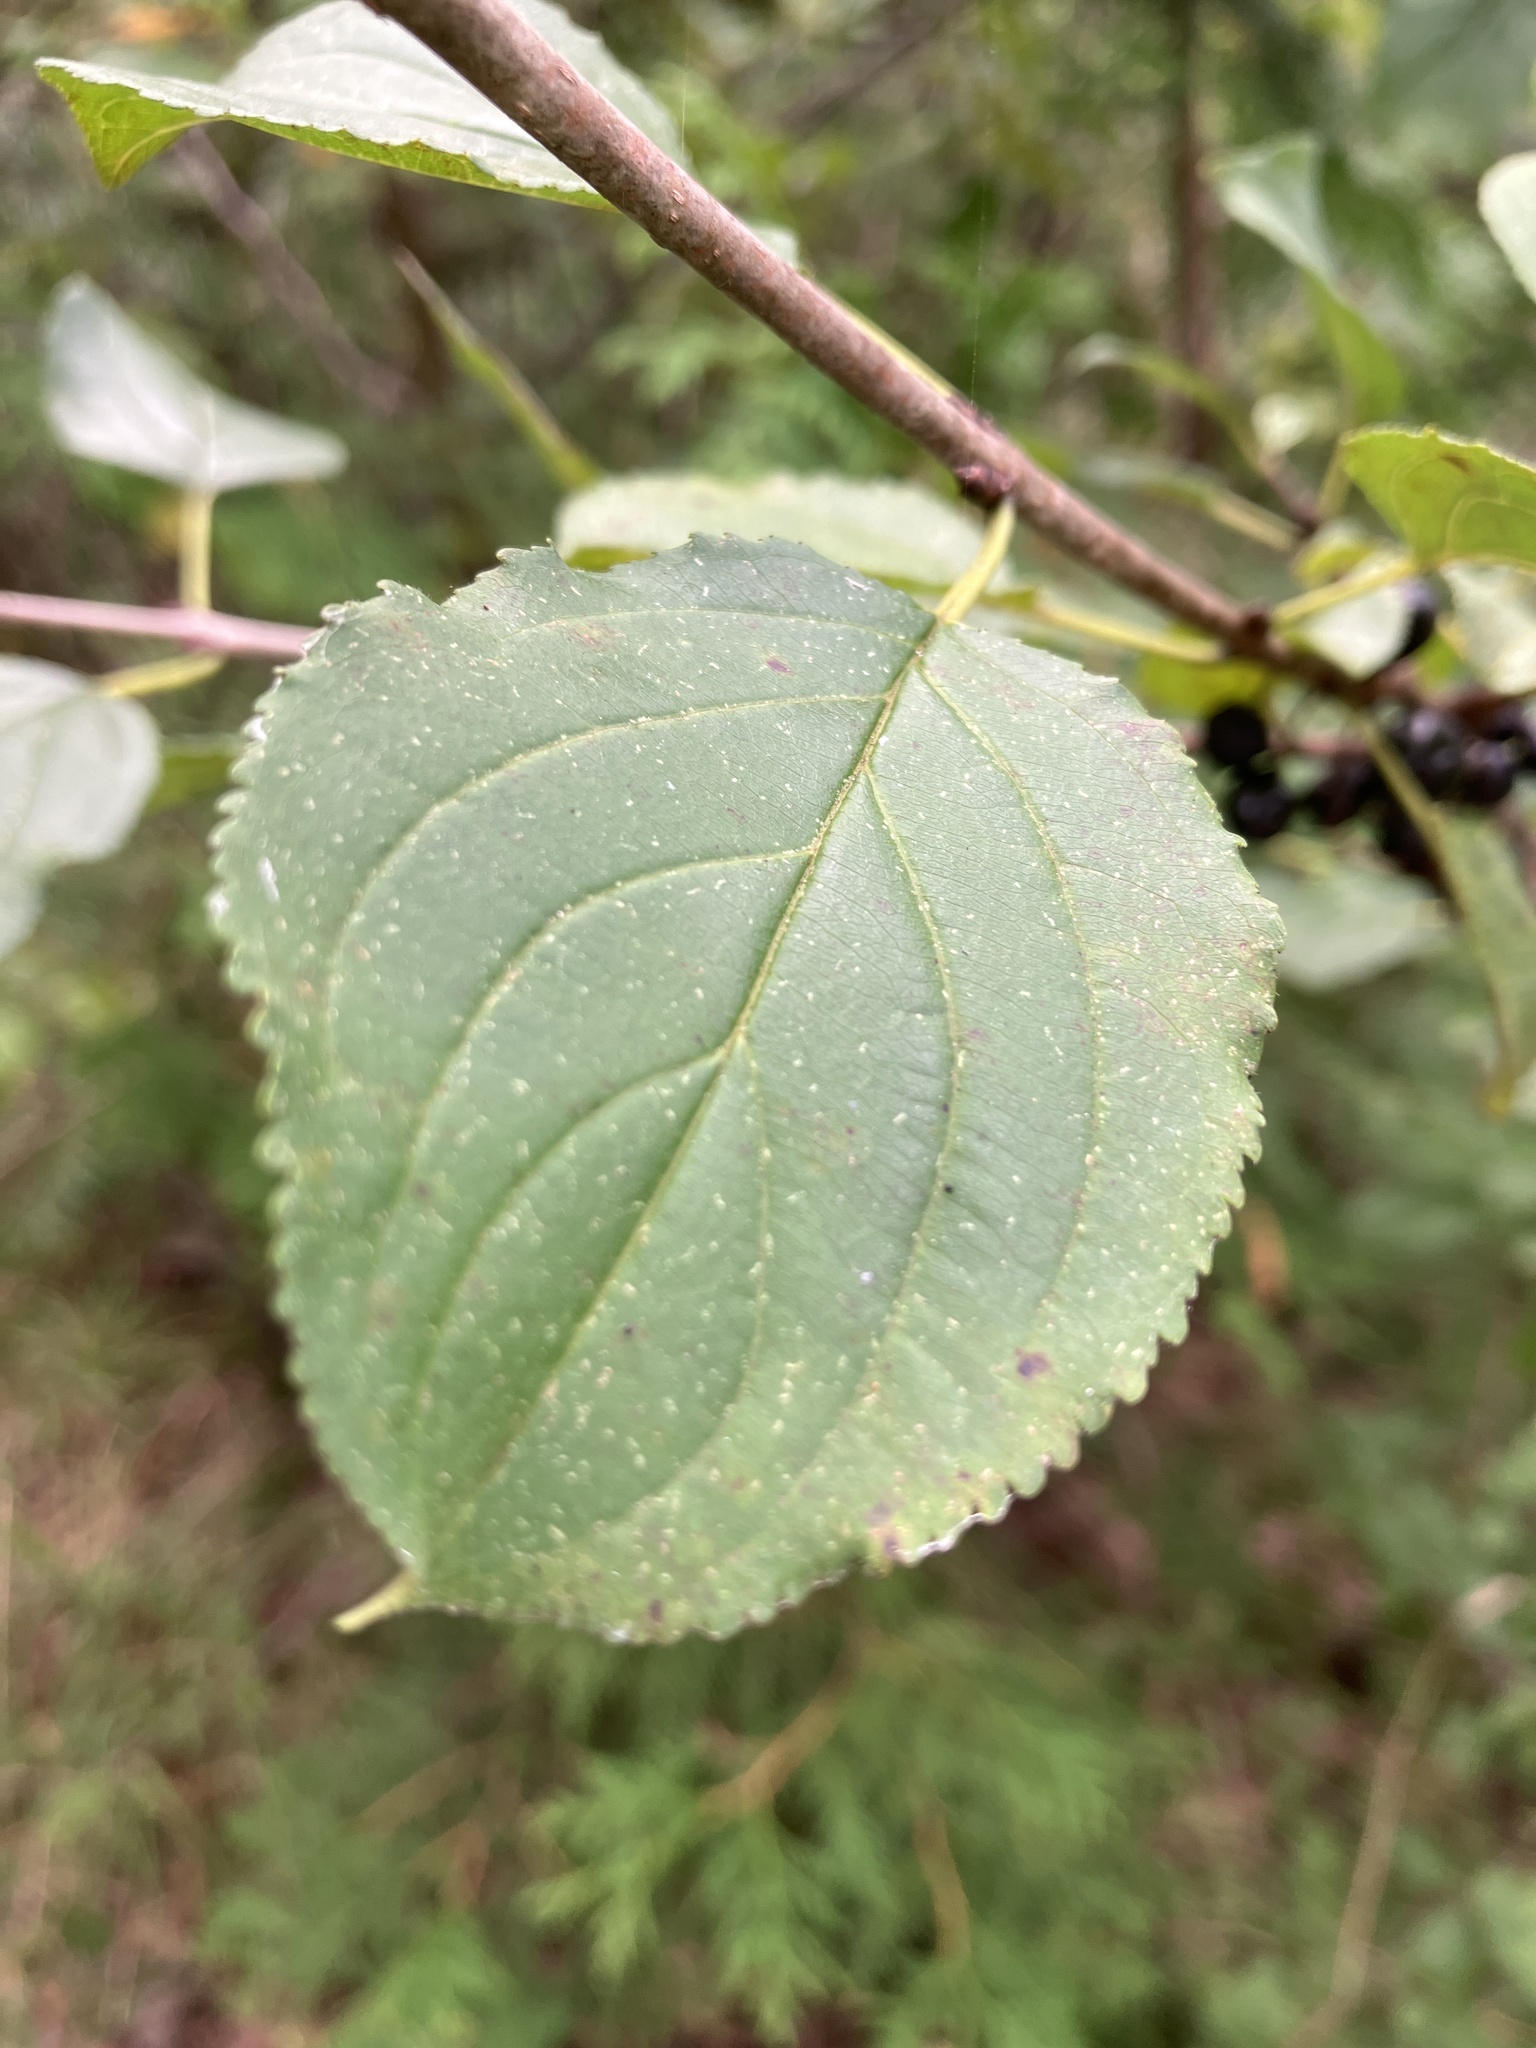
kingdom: Plantae
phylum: Tracheophyta
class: Magnoliopsida
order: Rosales
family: Rhamnaceae
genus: Rhamnus
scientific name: Rhamnus cathartica
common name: Common buckthorn
